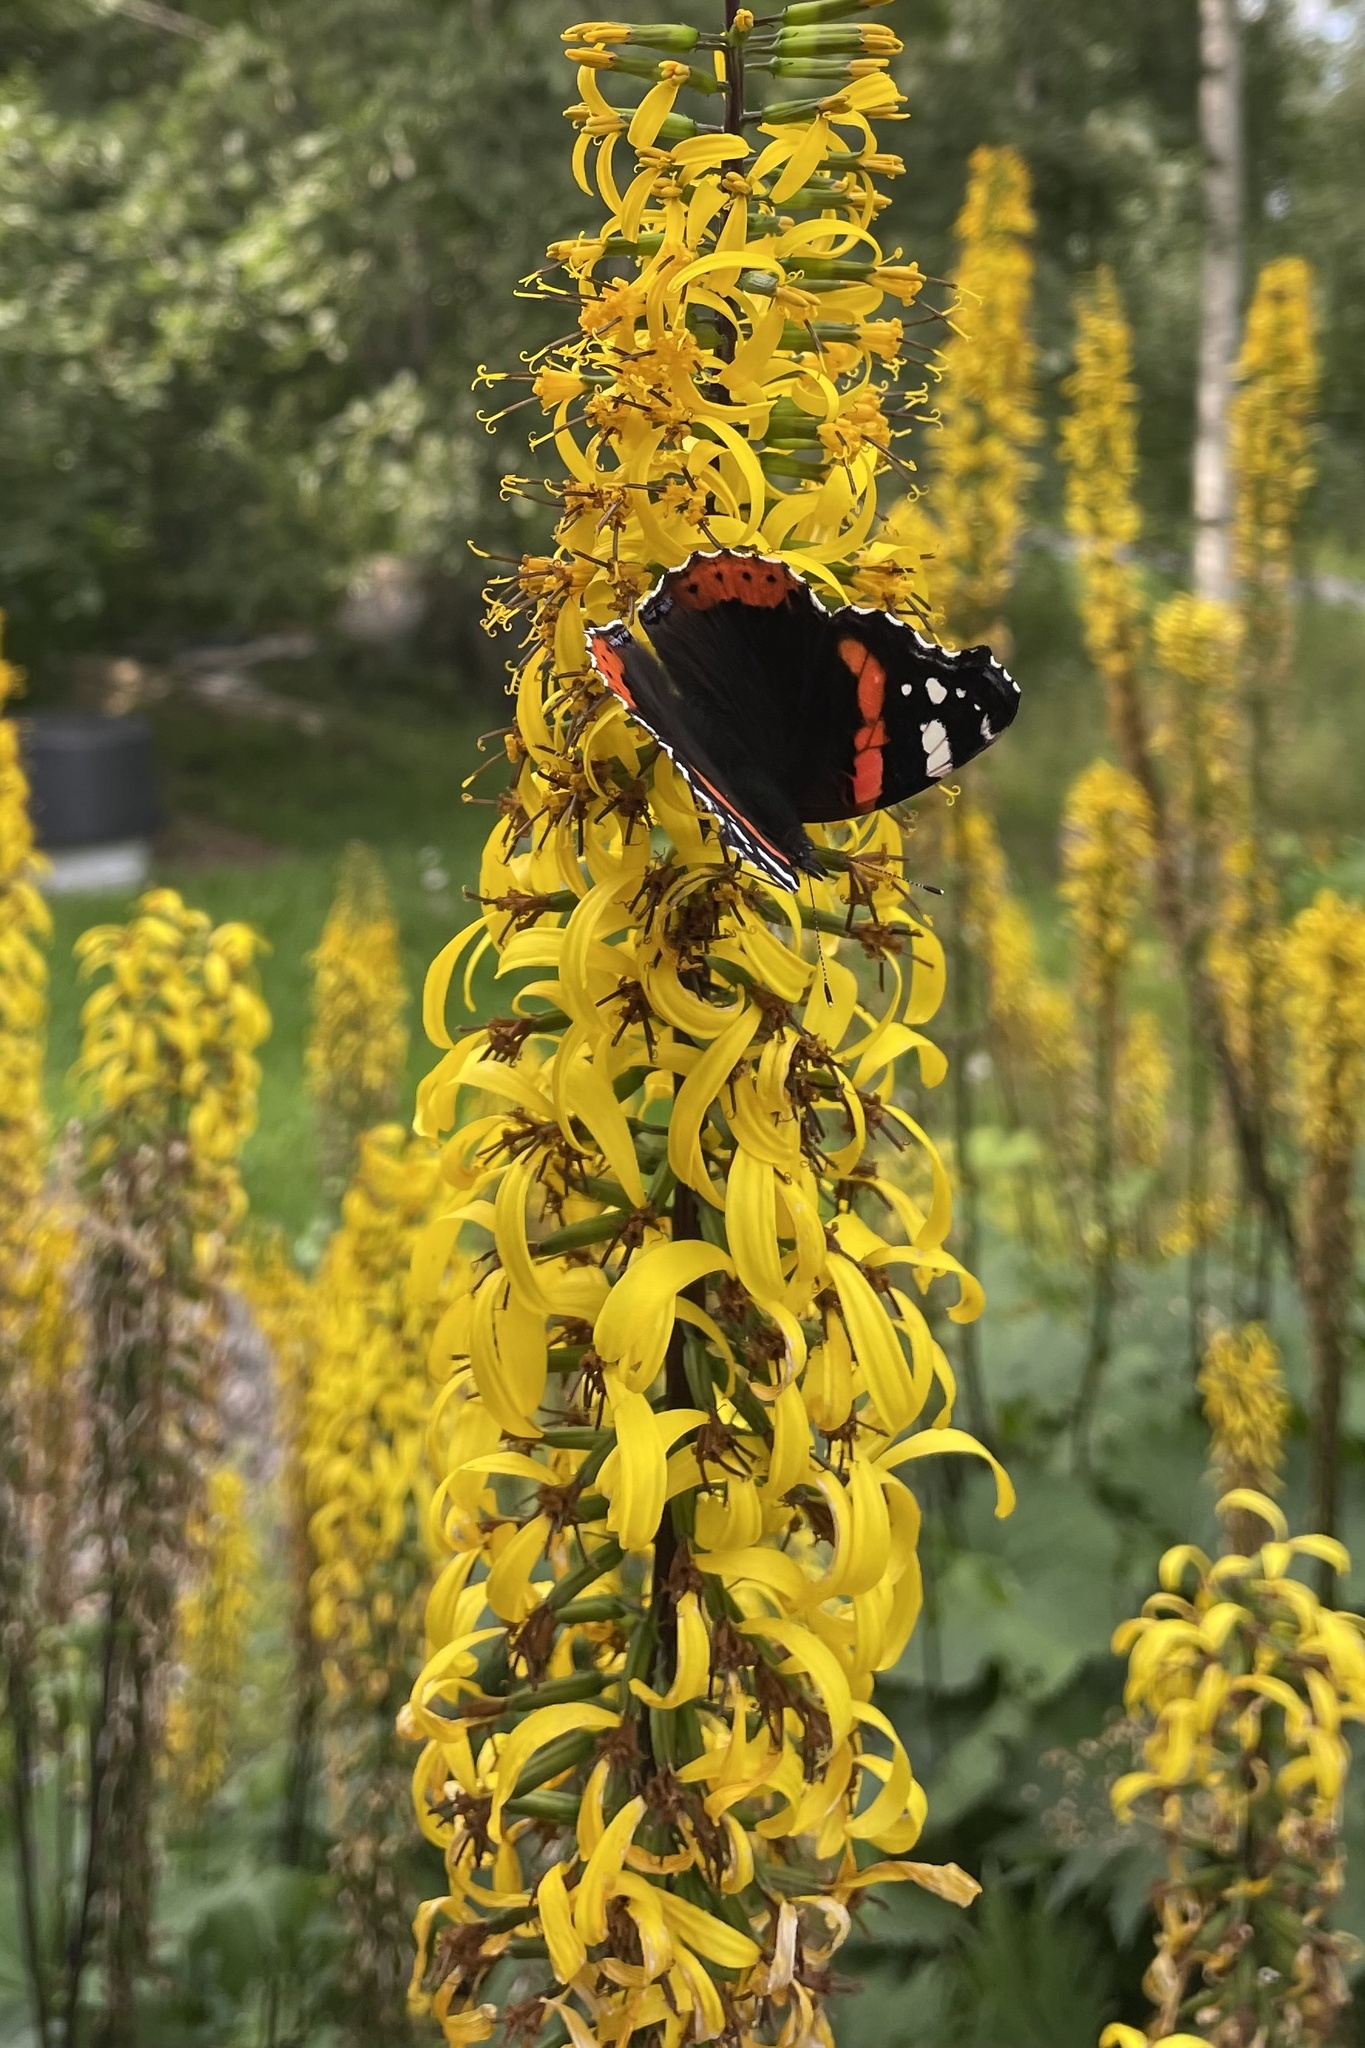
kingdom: Animalia
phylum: Arthropoda
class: Insecta
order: Lepidoptera
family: Nymphalidae
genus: Vanessa
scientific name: Vanessa atalanta
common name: Red admiral
